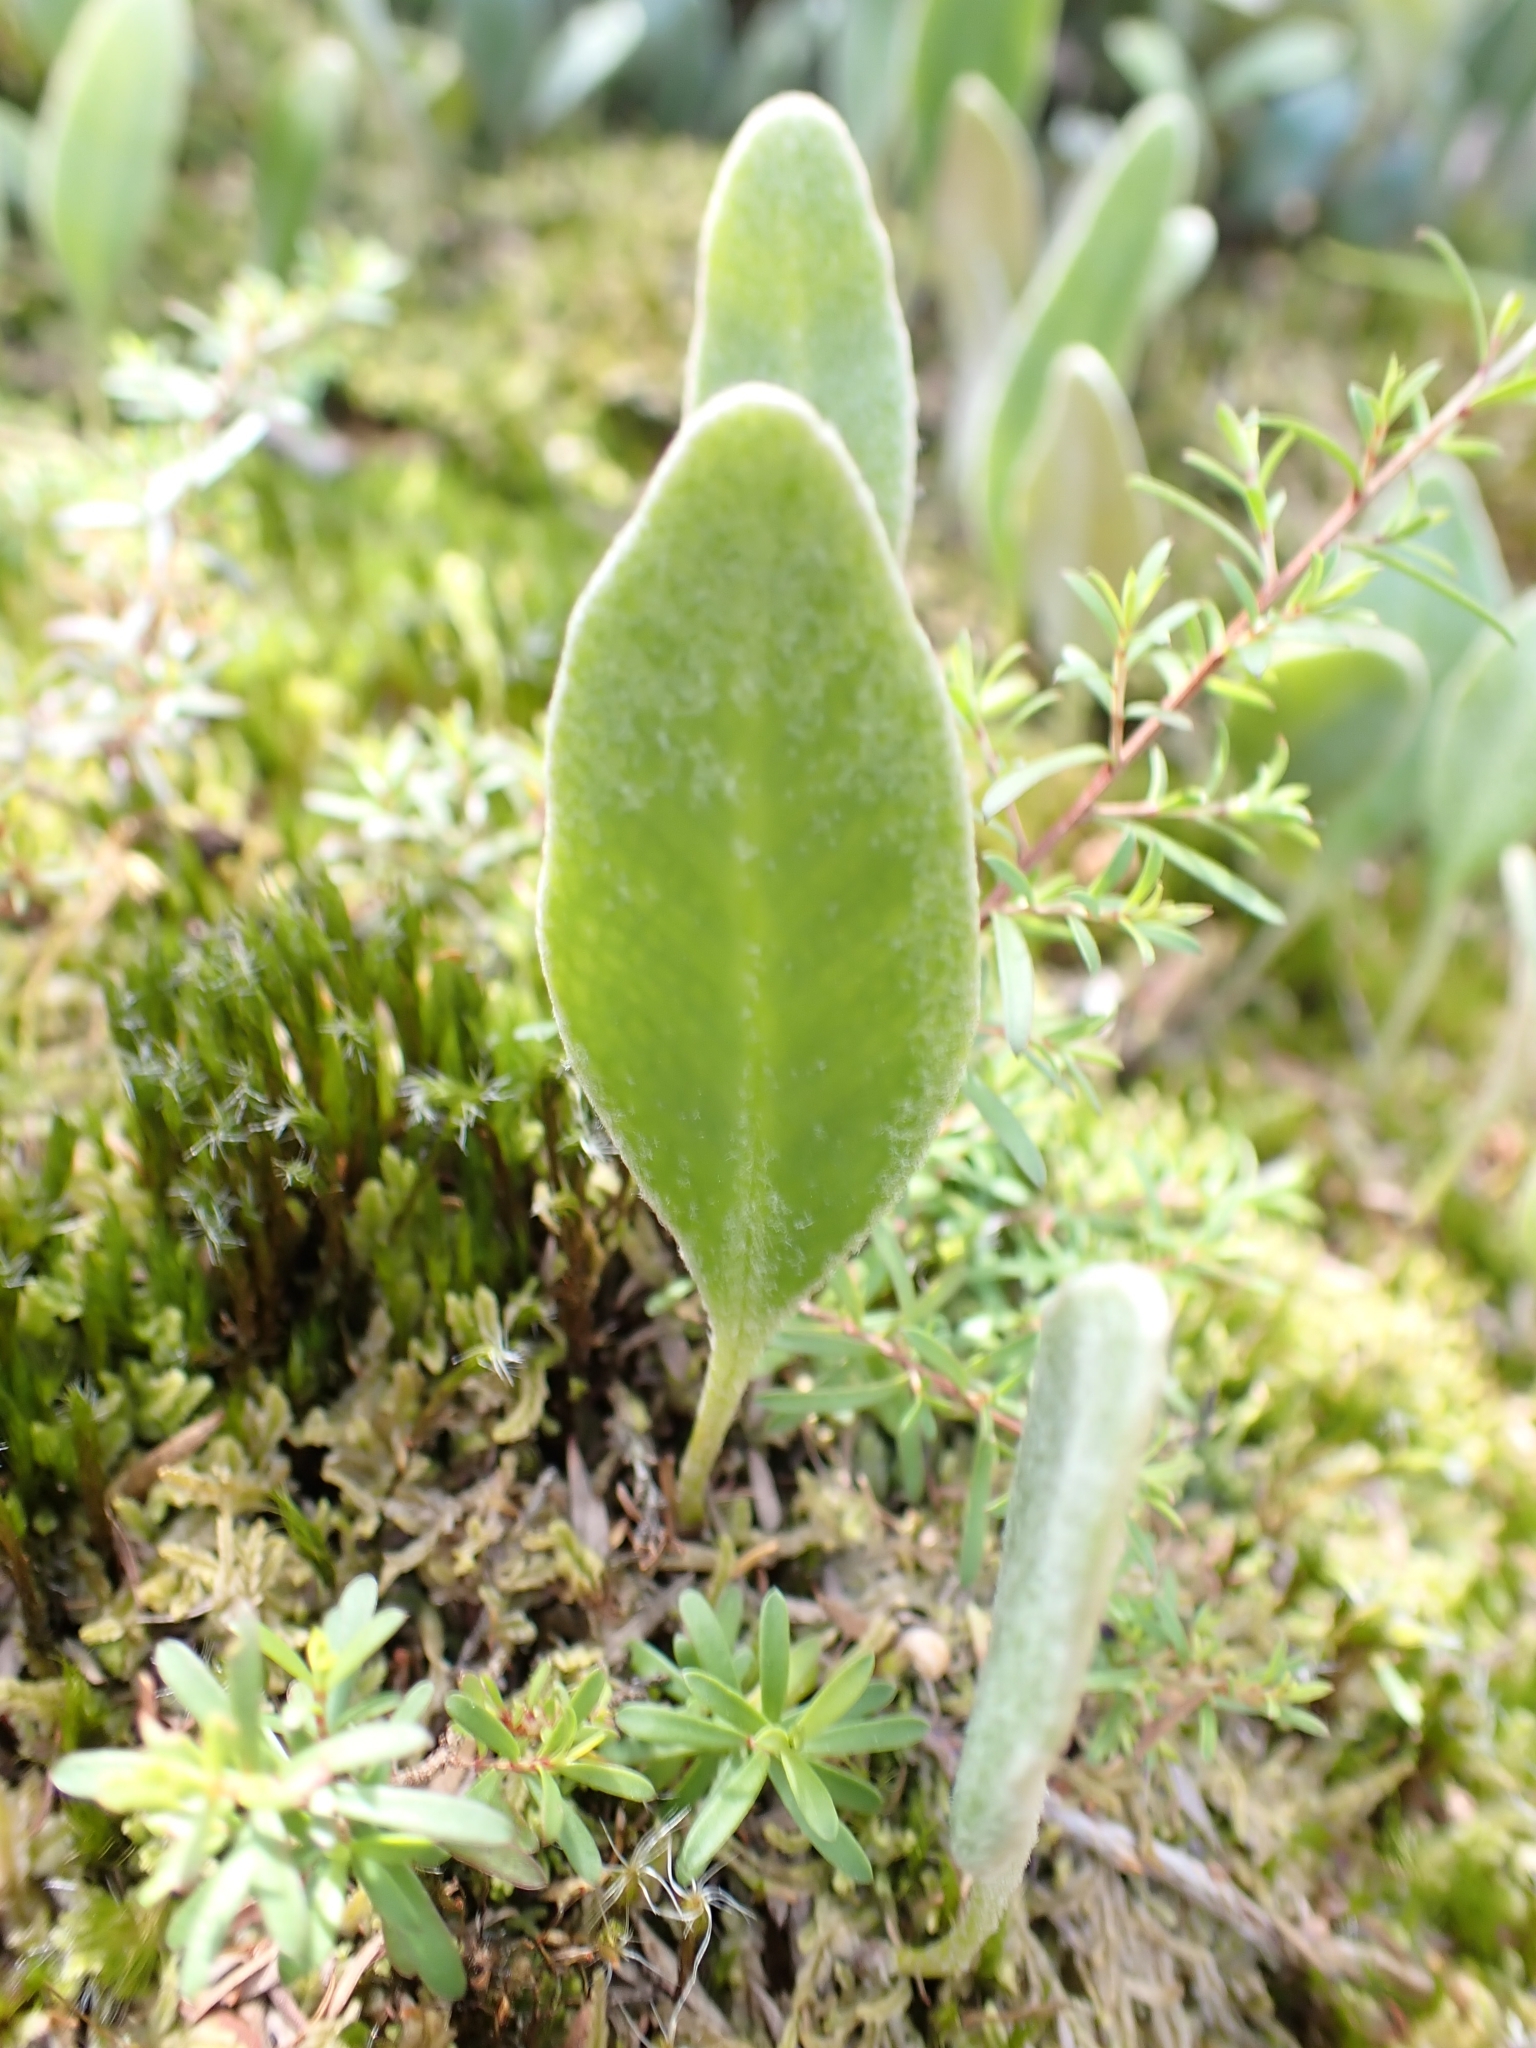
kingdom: Plantae
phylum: Tracheophyta
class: Polypodiopsida
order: Polypodiales
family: Polypodiaceae
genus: Pyrrosia
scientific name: Pyrrosia eleagnifolia
